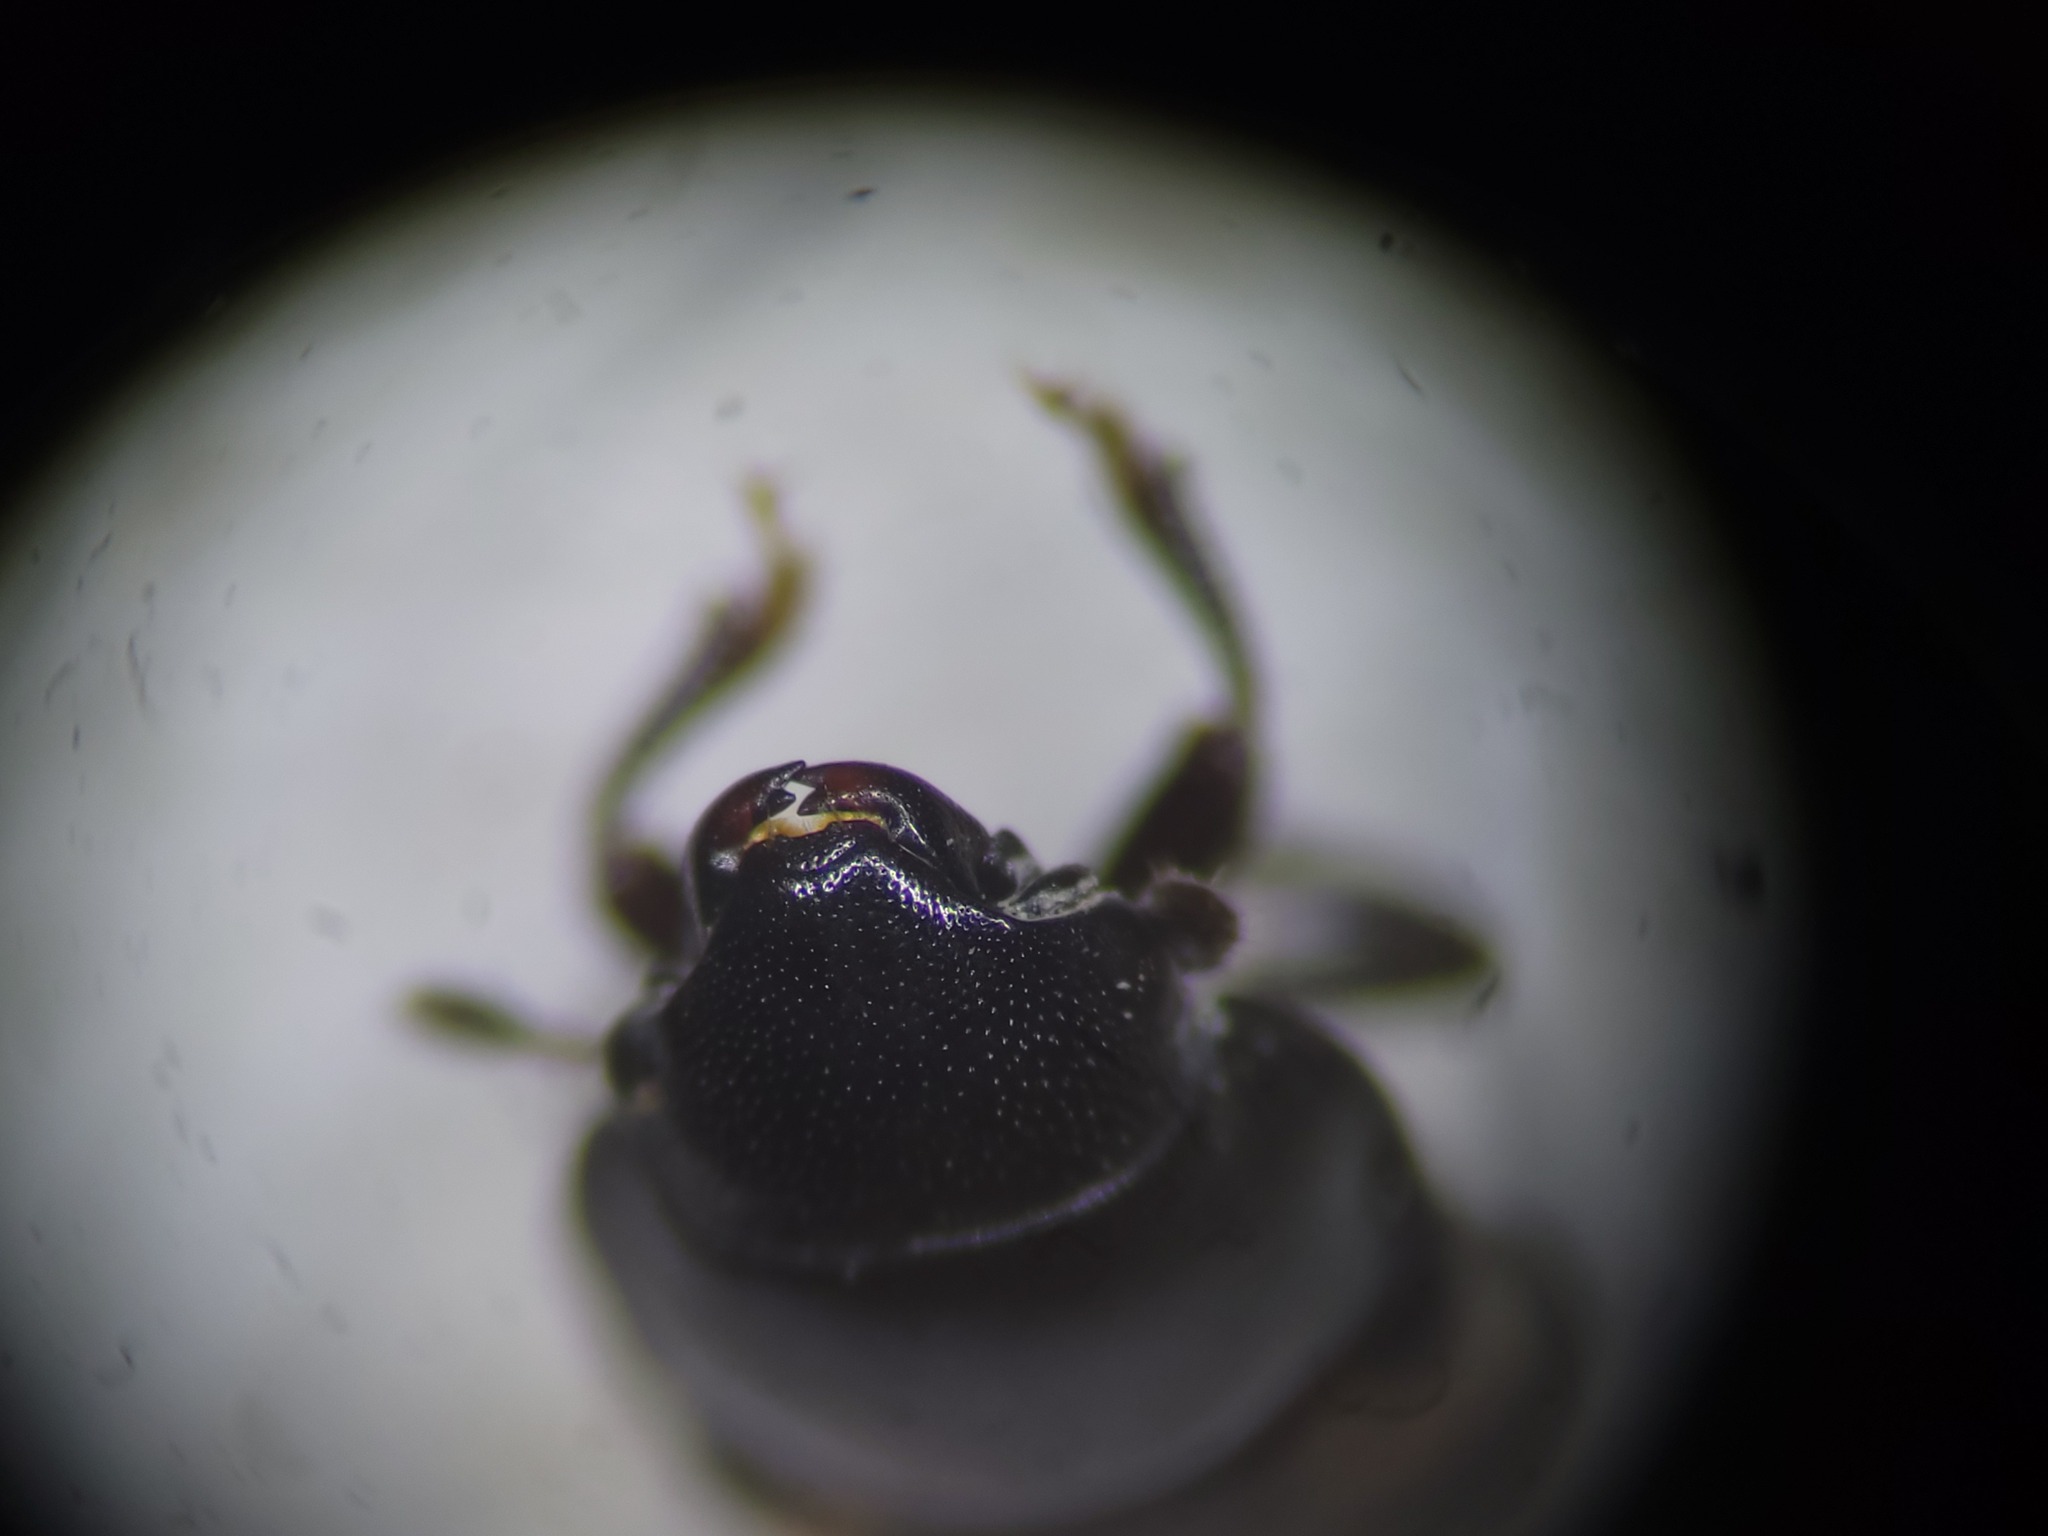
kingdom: Animalia
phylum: Arthropoda
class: Insecta
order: Coleoptera
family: Nitidulidae
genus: Glischrochilus
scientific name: Glischrochilus quadrisignatus
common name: Picnic beetle
